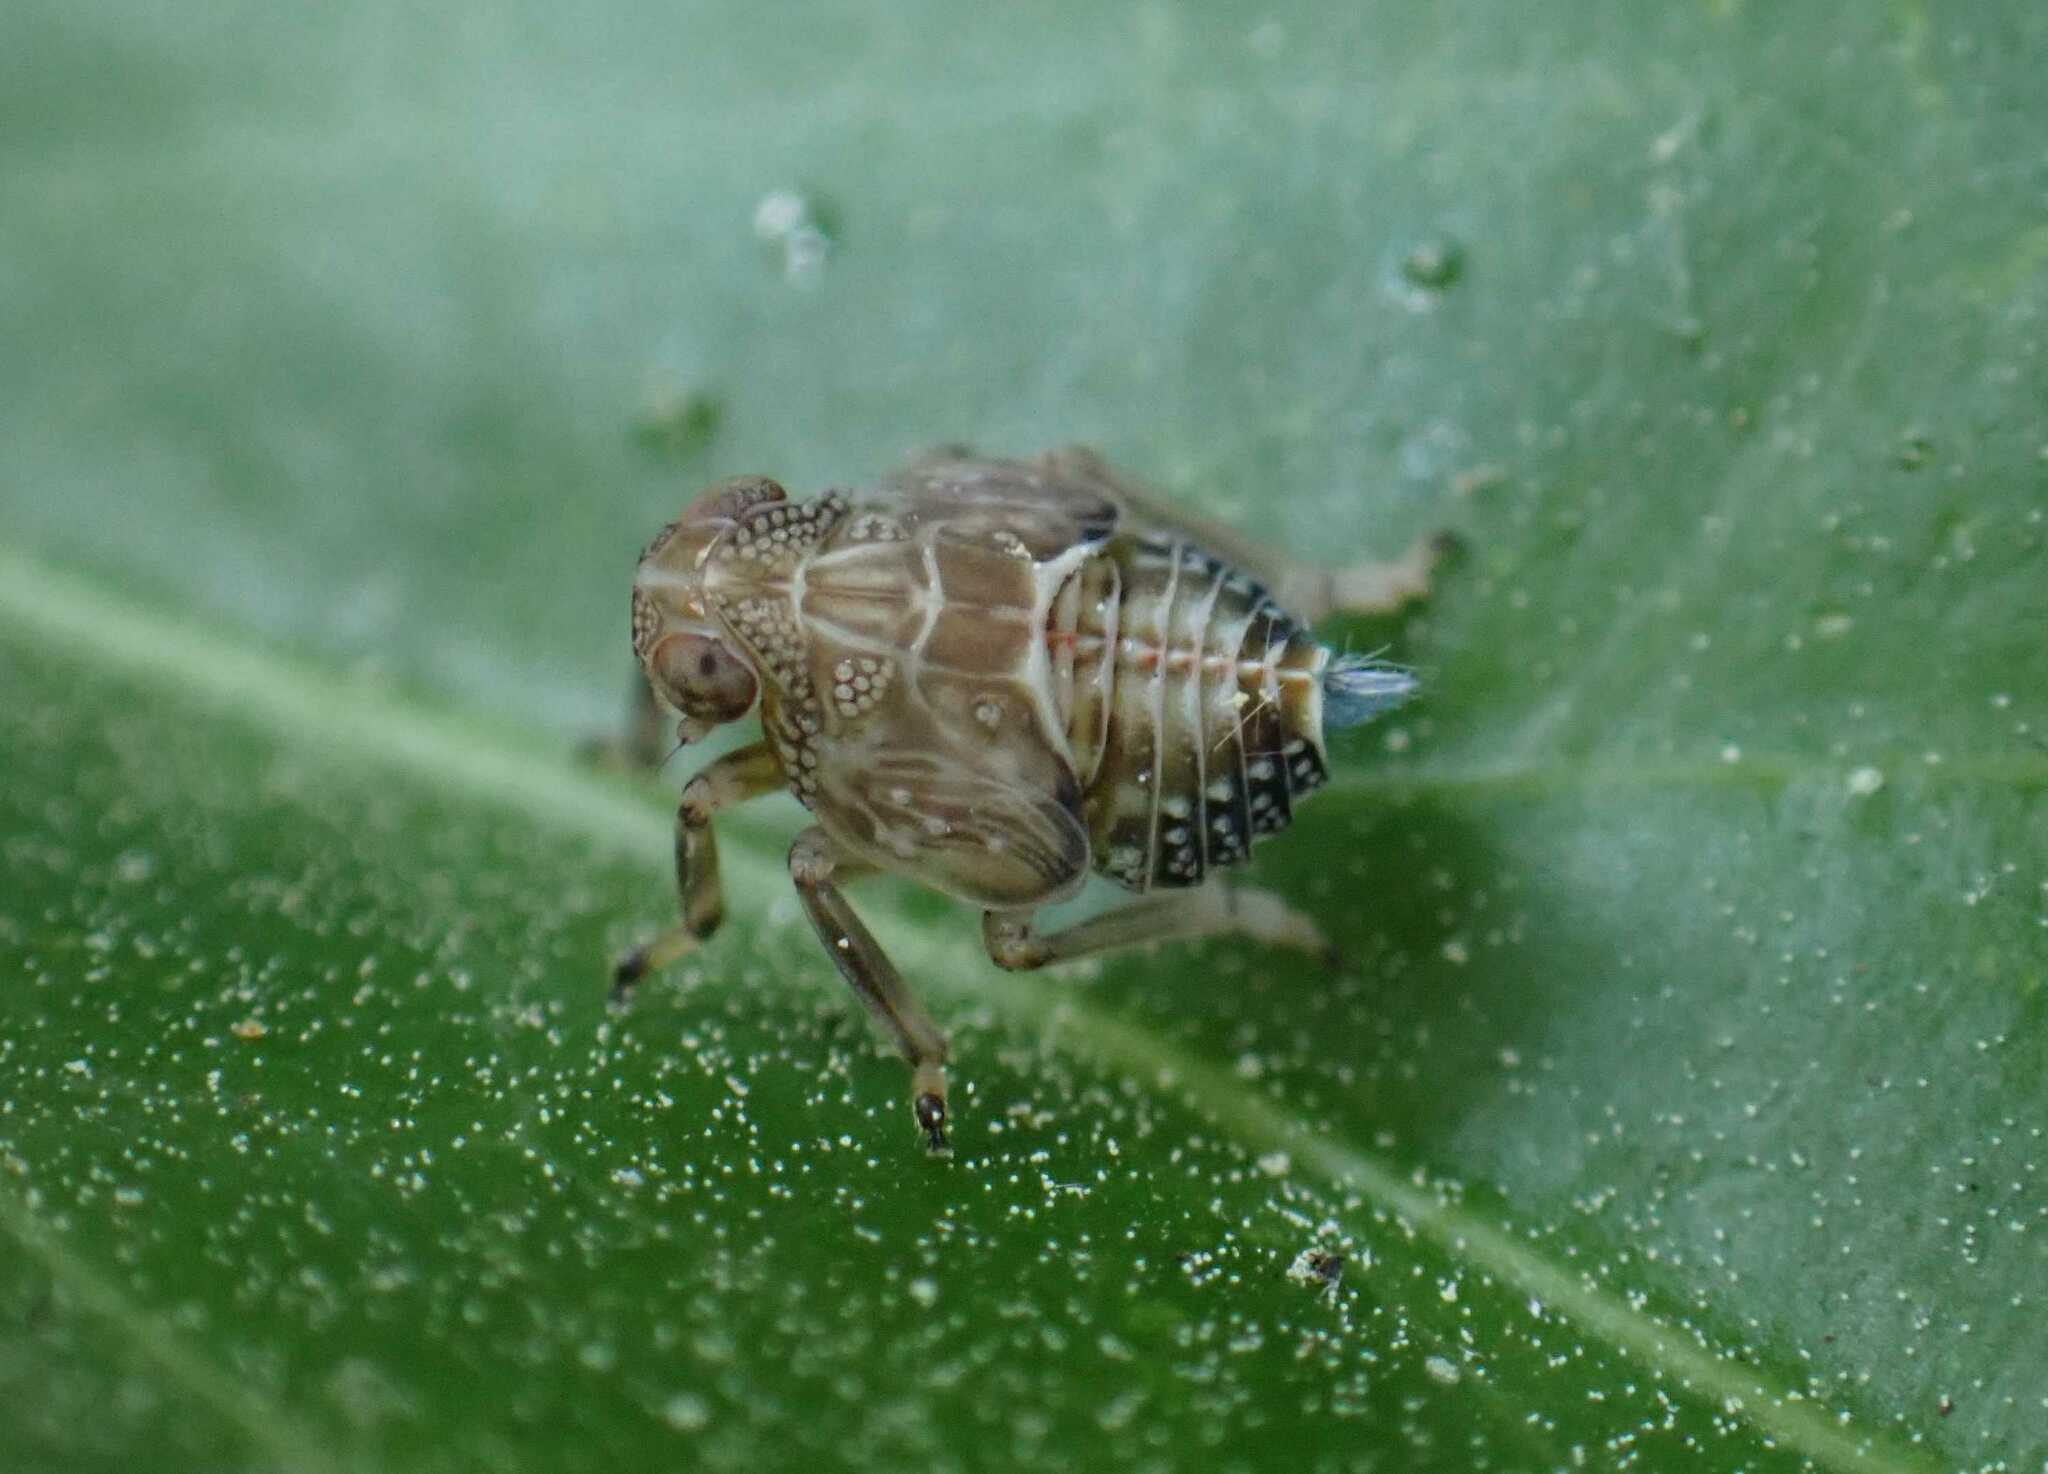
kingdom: Animalia
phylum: Arthropoda
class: Insecta
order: Hemiptera
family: Issidae
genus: Issus
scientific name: Issus coleoptratus
